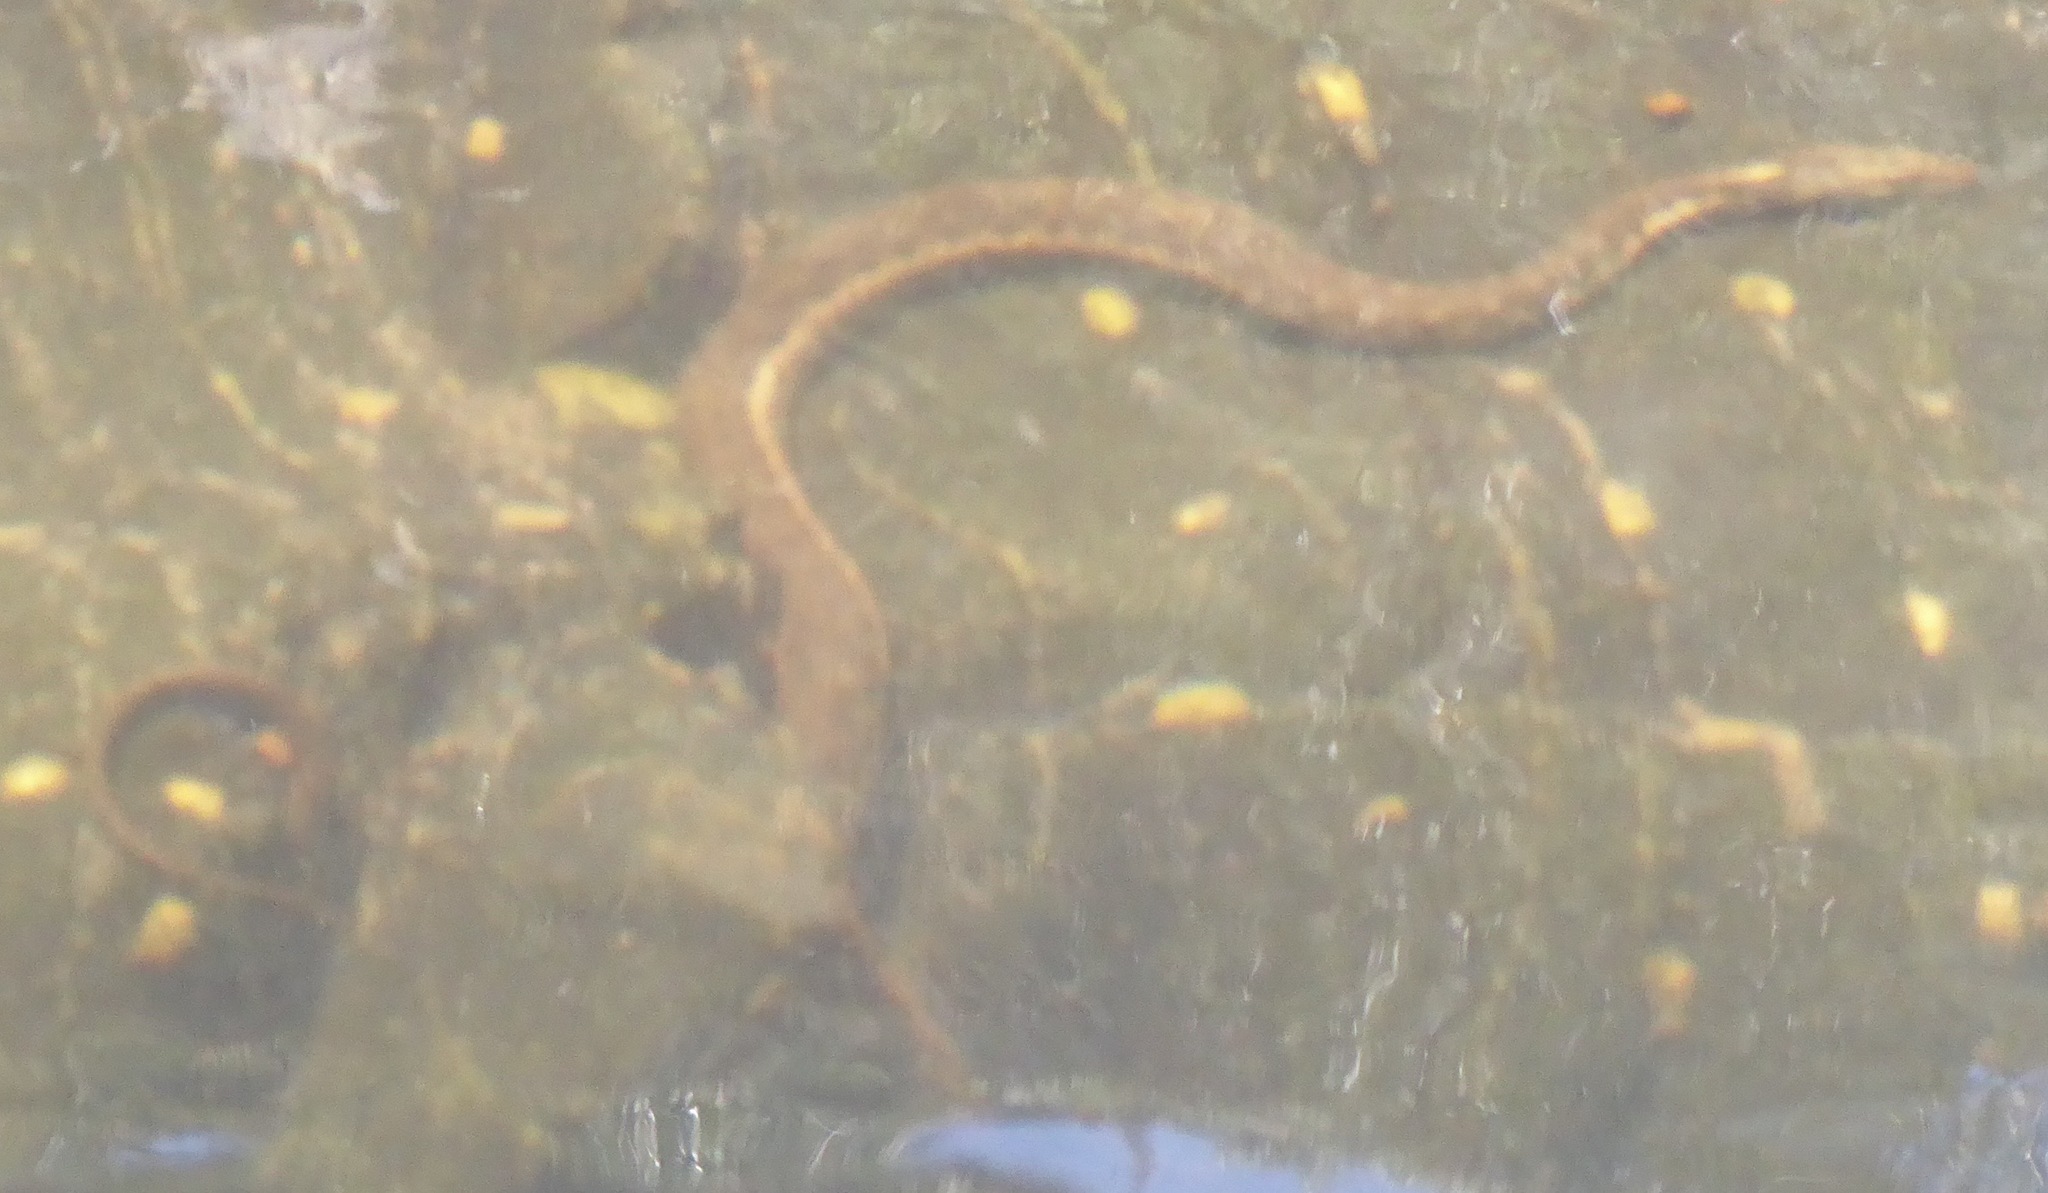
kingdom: Animalia
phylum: Chordata
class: Squamata
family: Colubridae
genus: Thamnophis
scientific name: Thamnophis couchii
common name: Western aquatic garter snake
